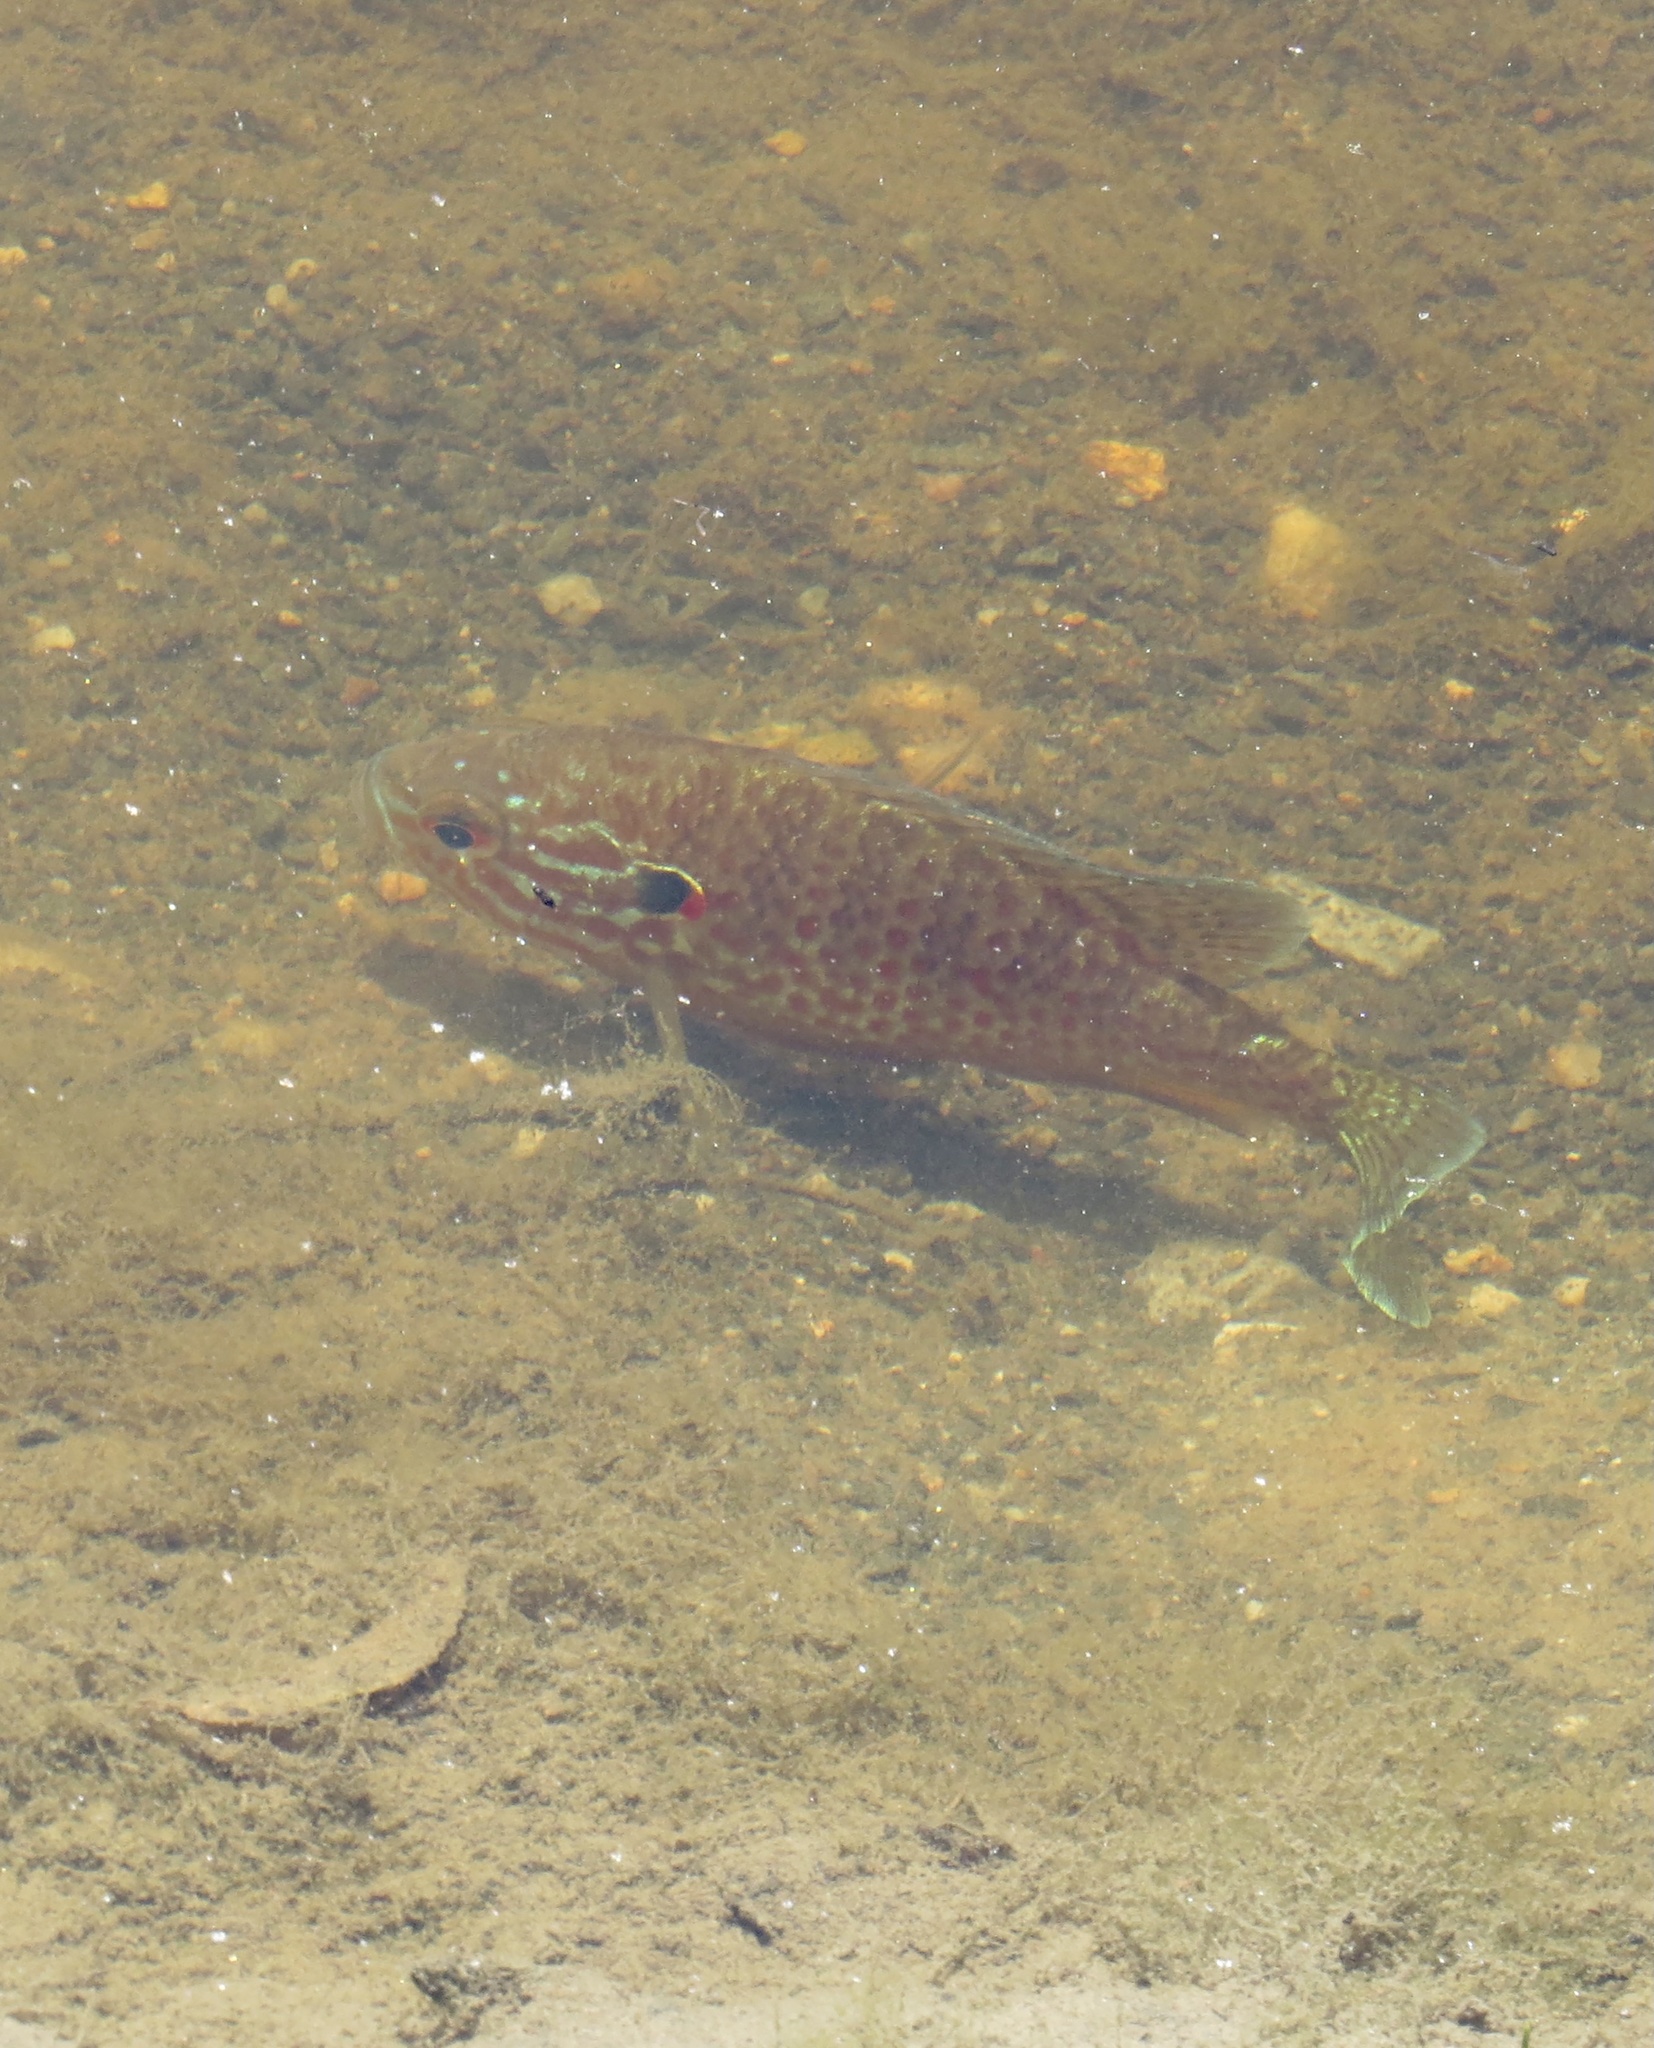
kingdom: Animalia
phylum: Chordata
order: Perciformes
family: Centrarchidae
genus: Lepomis
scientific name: Lepomis gibbosus
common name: Pumpkinseed
